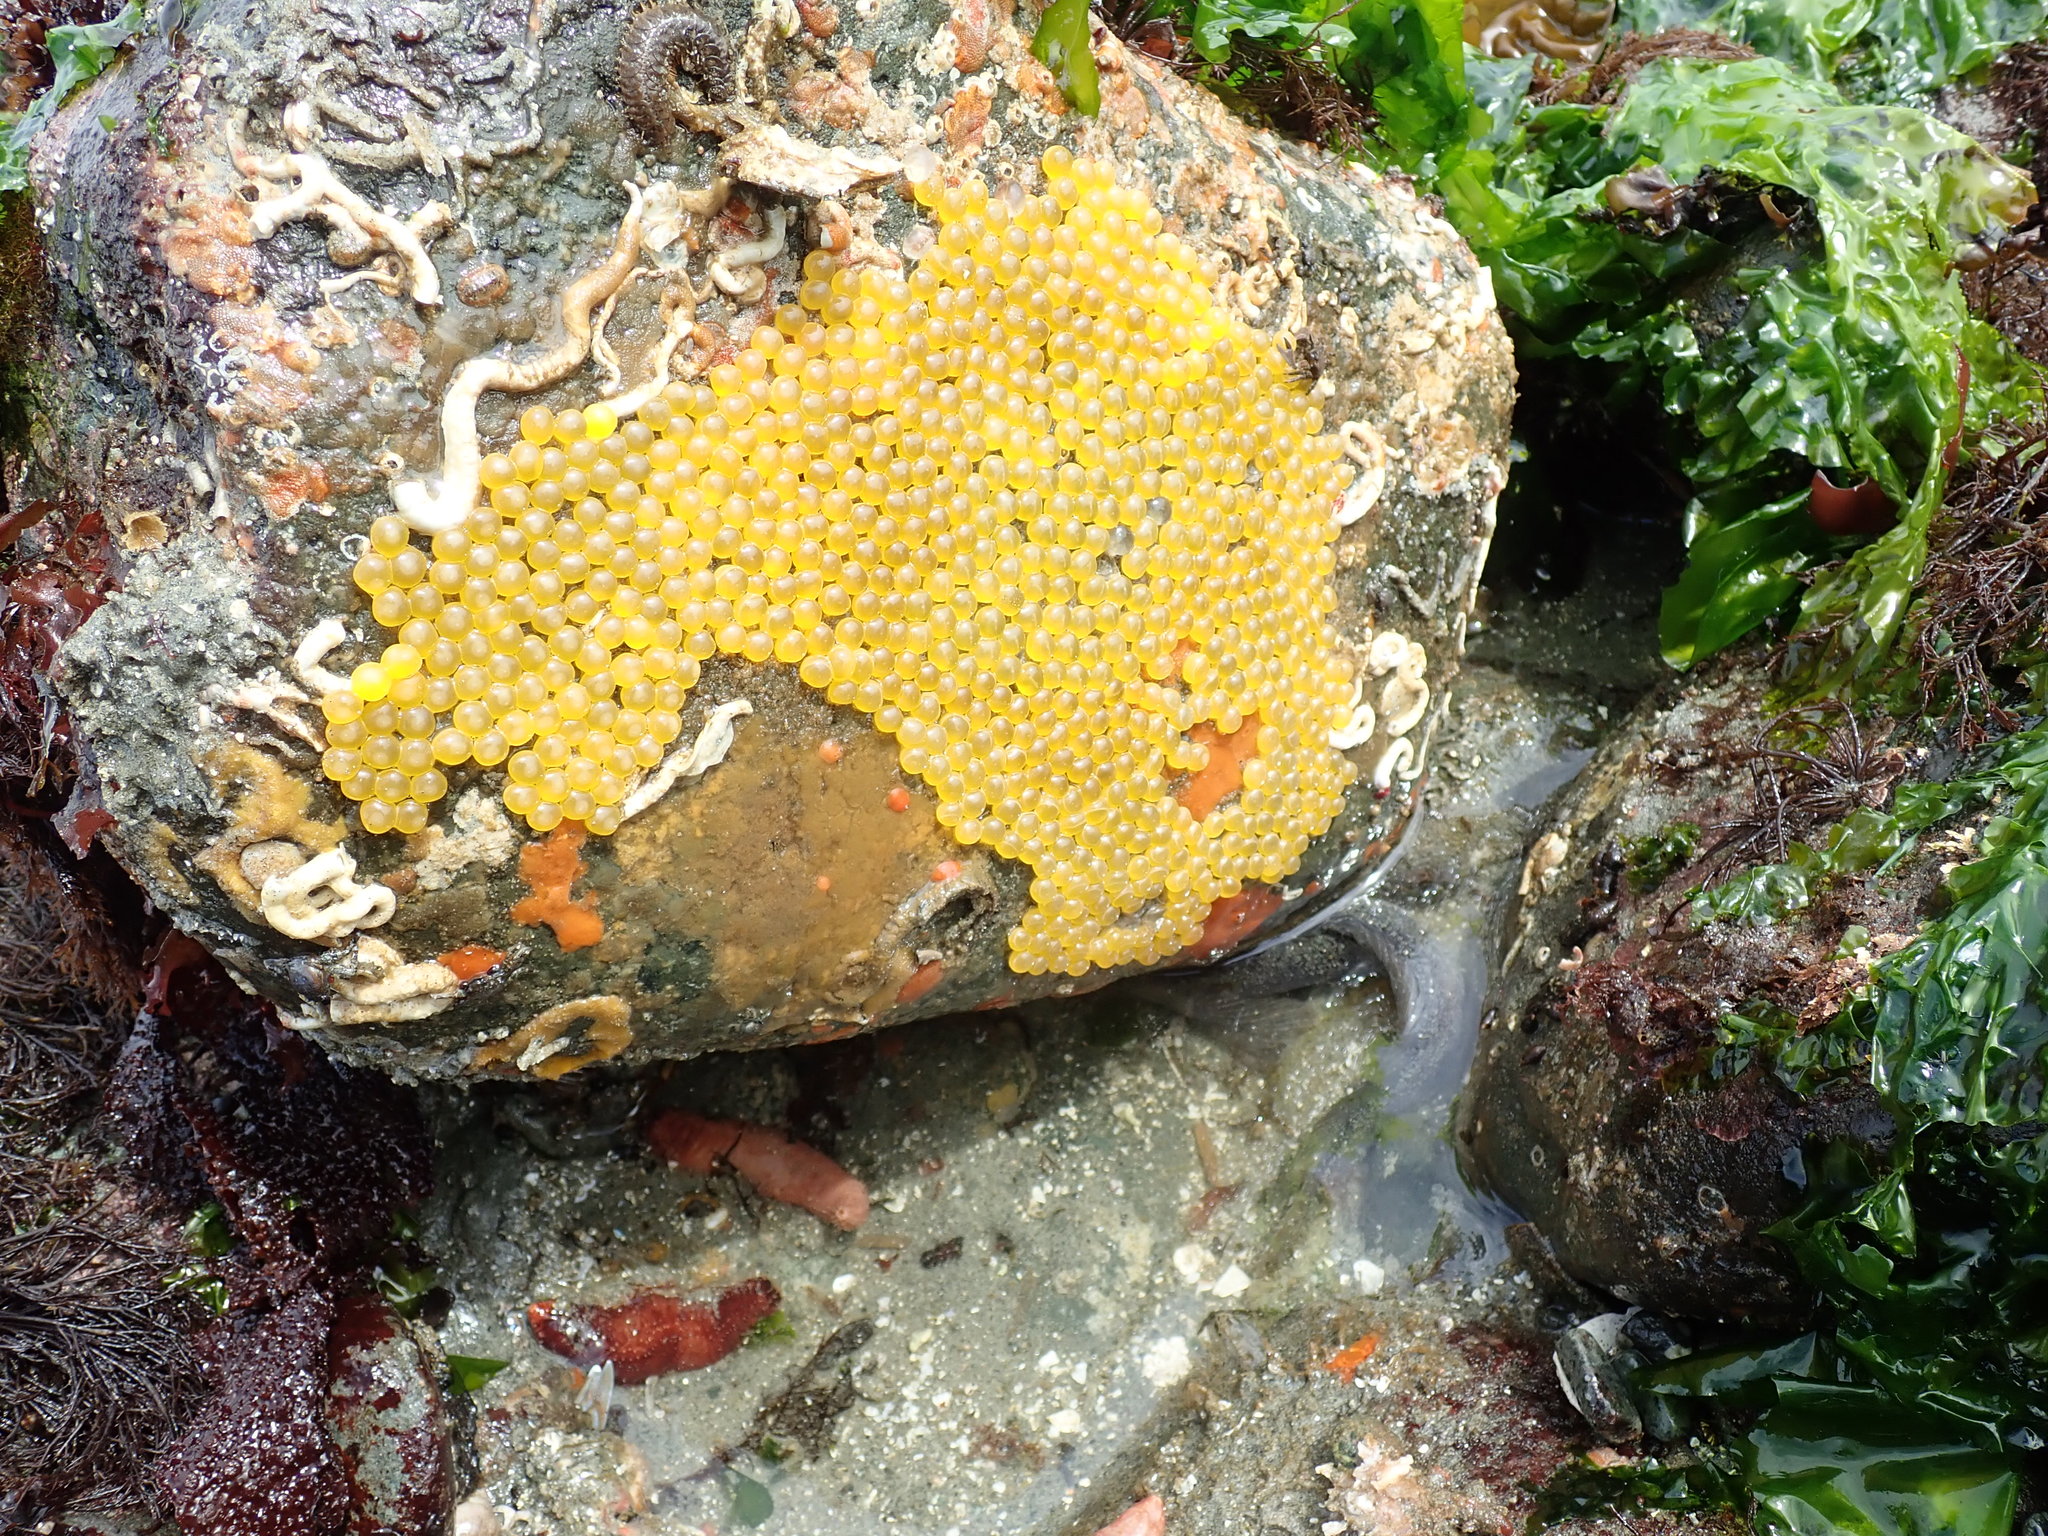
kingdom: Animalia
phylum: Chordata
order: Batrachoidiformes
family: Batrachoididae
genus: Porichthys
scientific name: Porichthys notatus
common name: Plainfin midshipman
